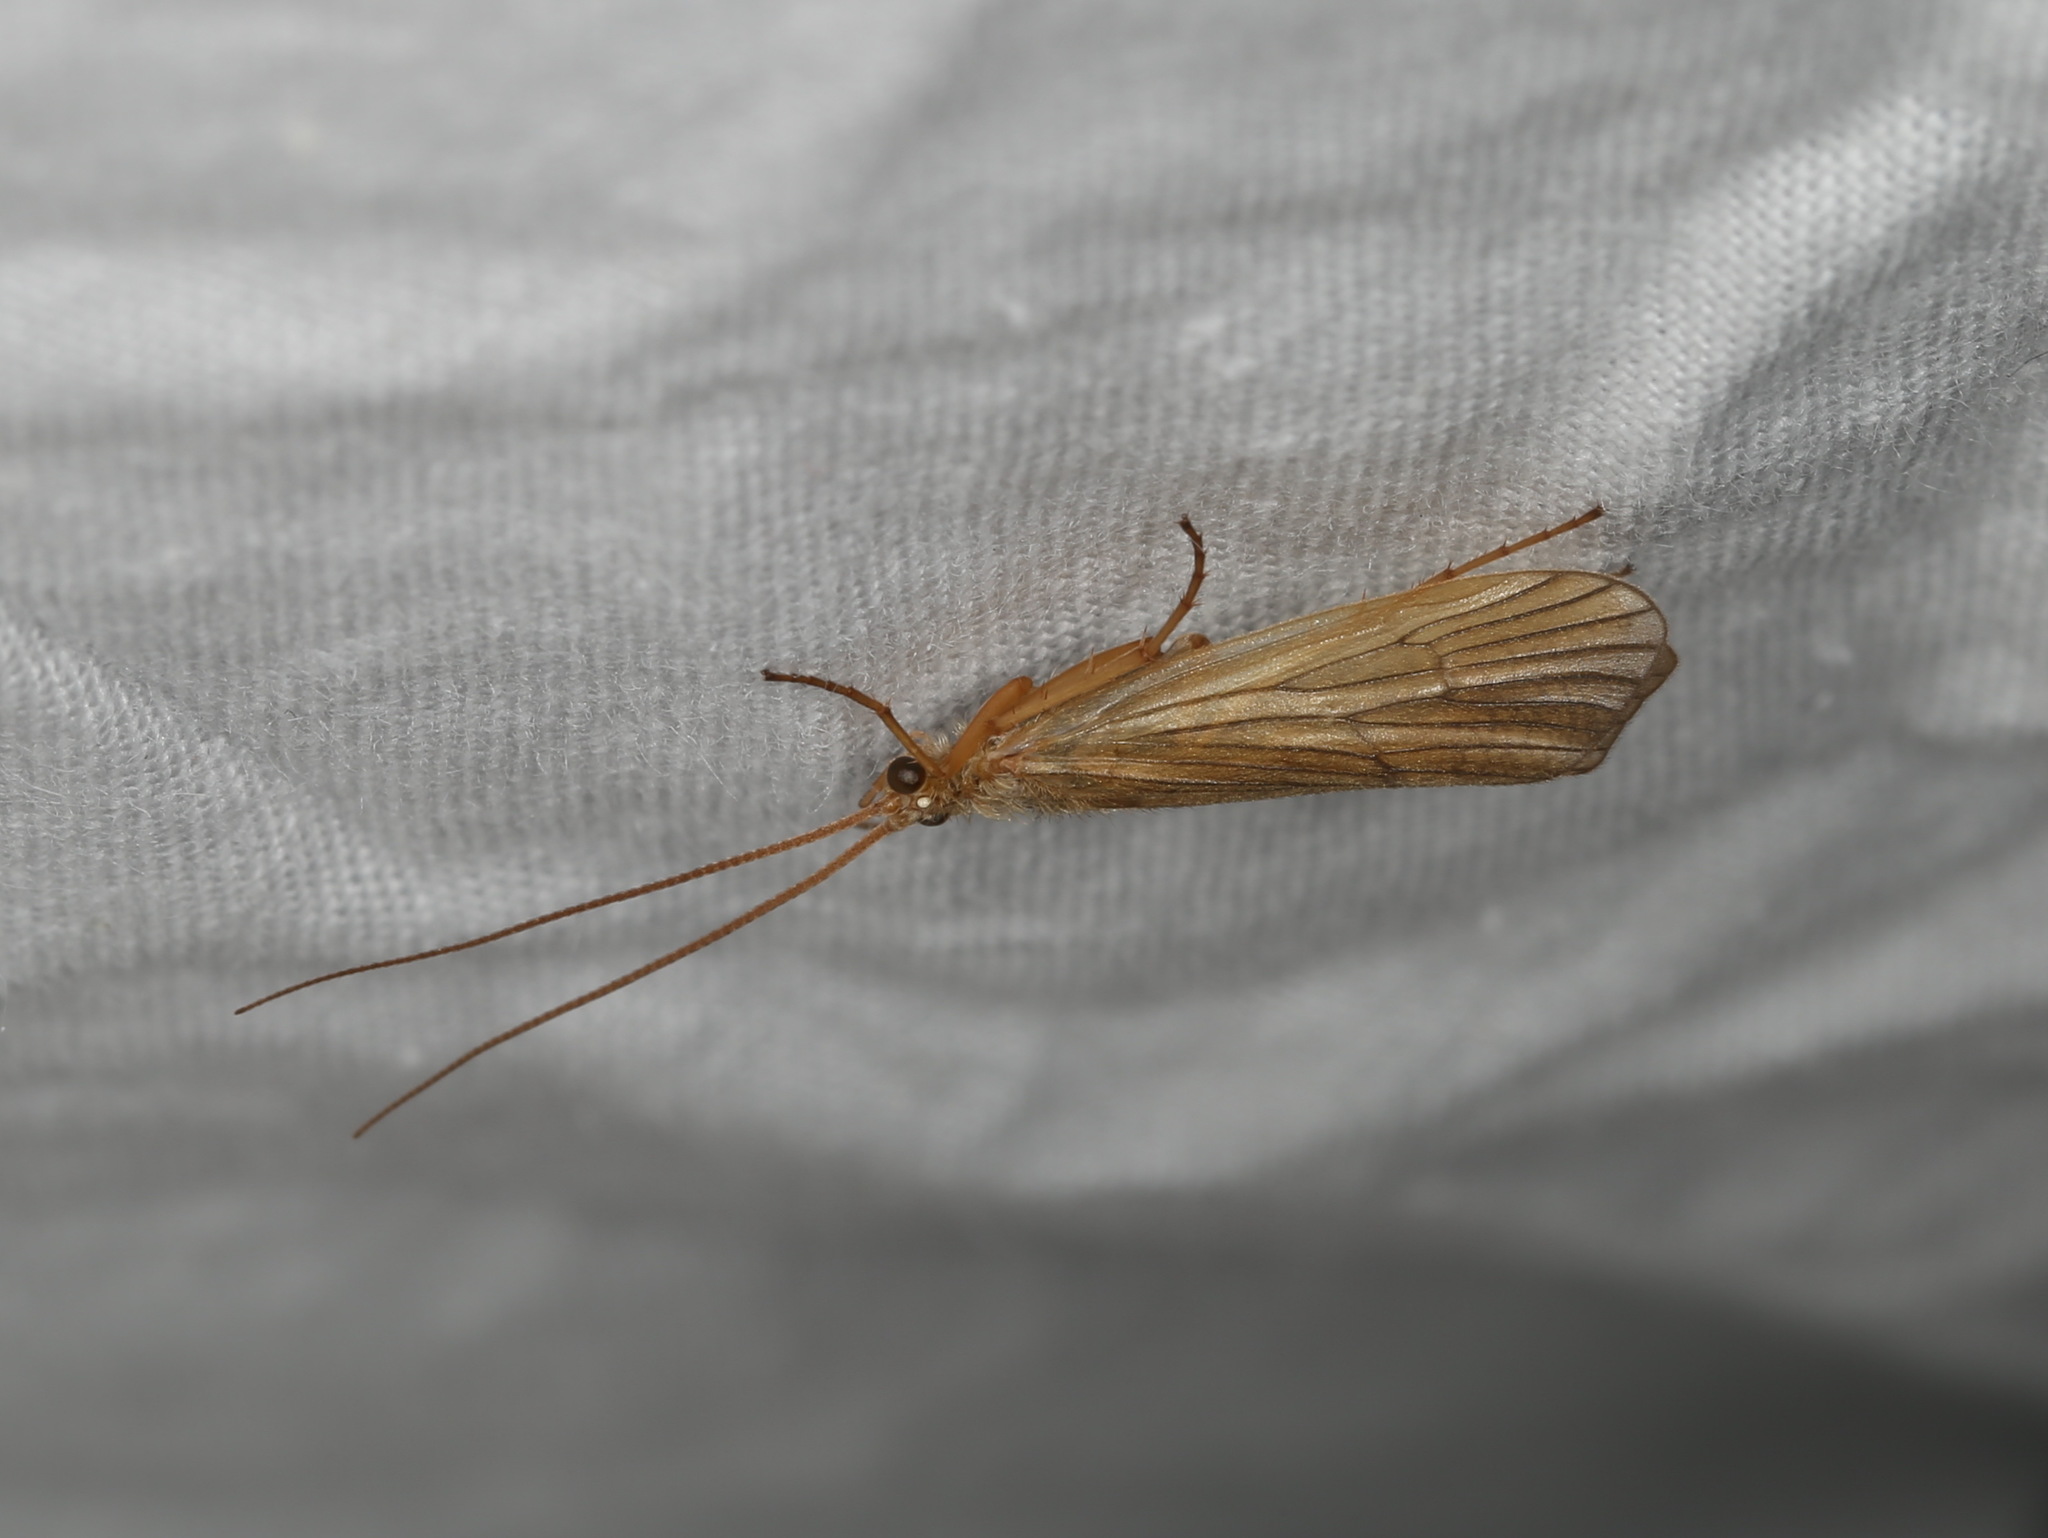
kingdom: Animalia
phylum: Arthropoda
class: Insecta
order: Trichoptera
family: Phryganeidae
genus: Agrypnia
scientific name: Agrypnia pagetana
